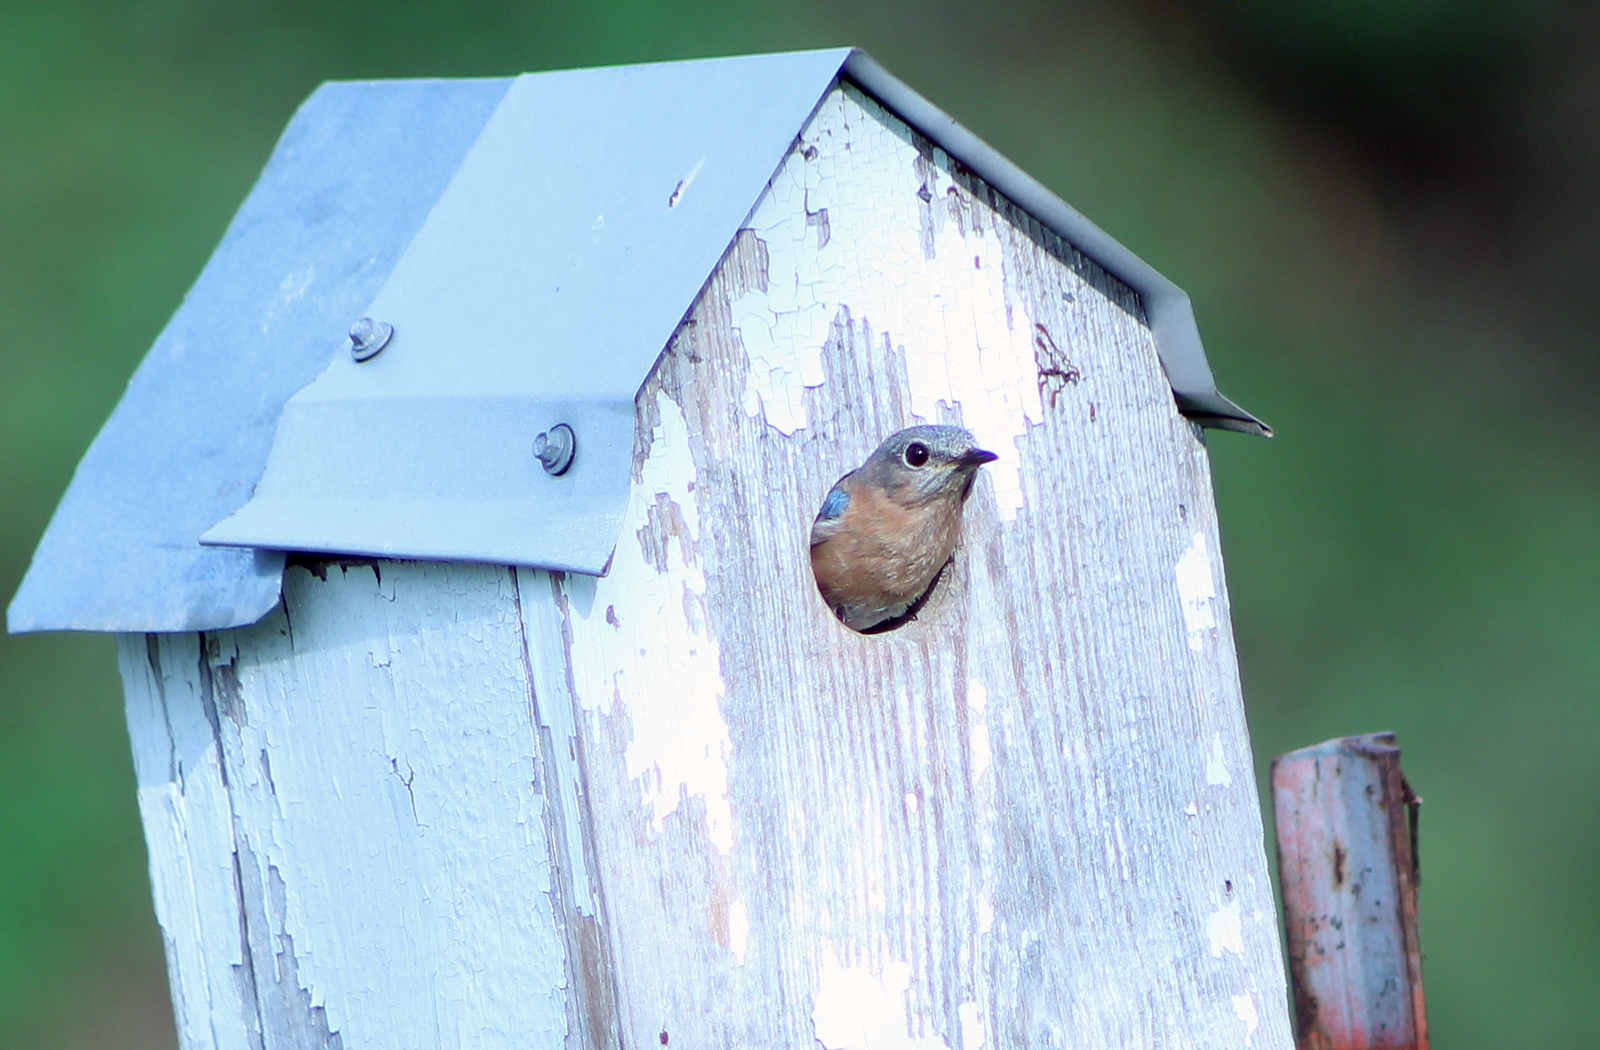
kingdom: Animalia
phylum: Chordata
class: Aves
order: Passeriformes
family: Turdidae
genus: Sialia
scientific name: Sialia sialis
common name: Eastern bluebird
